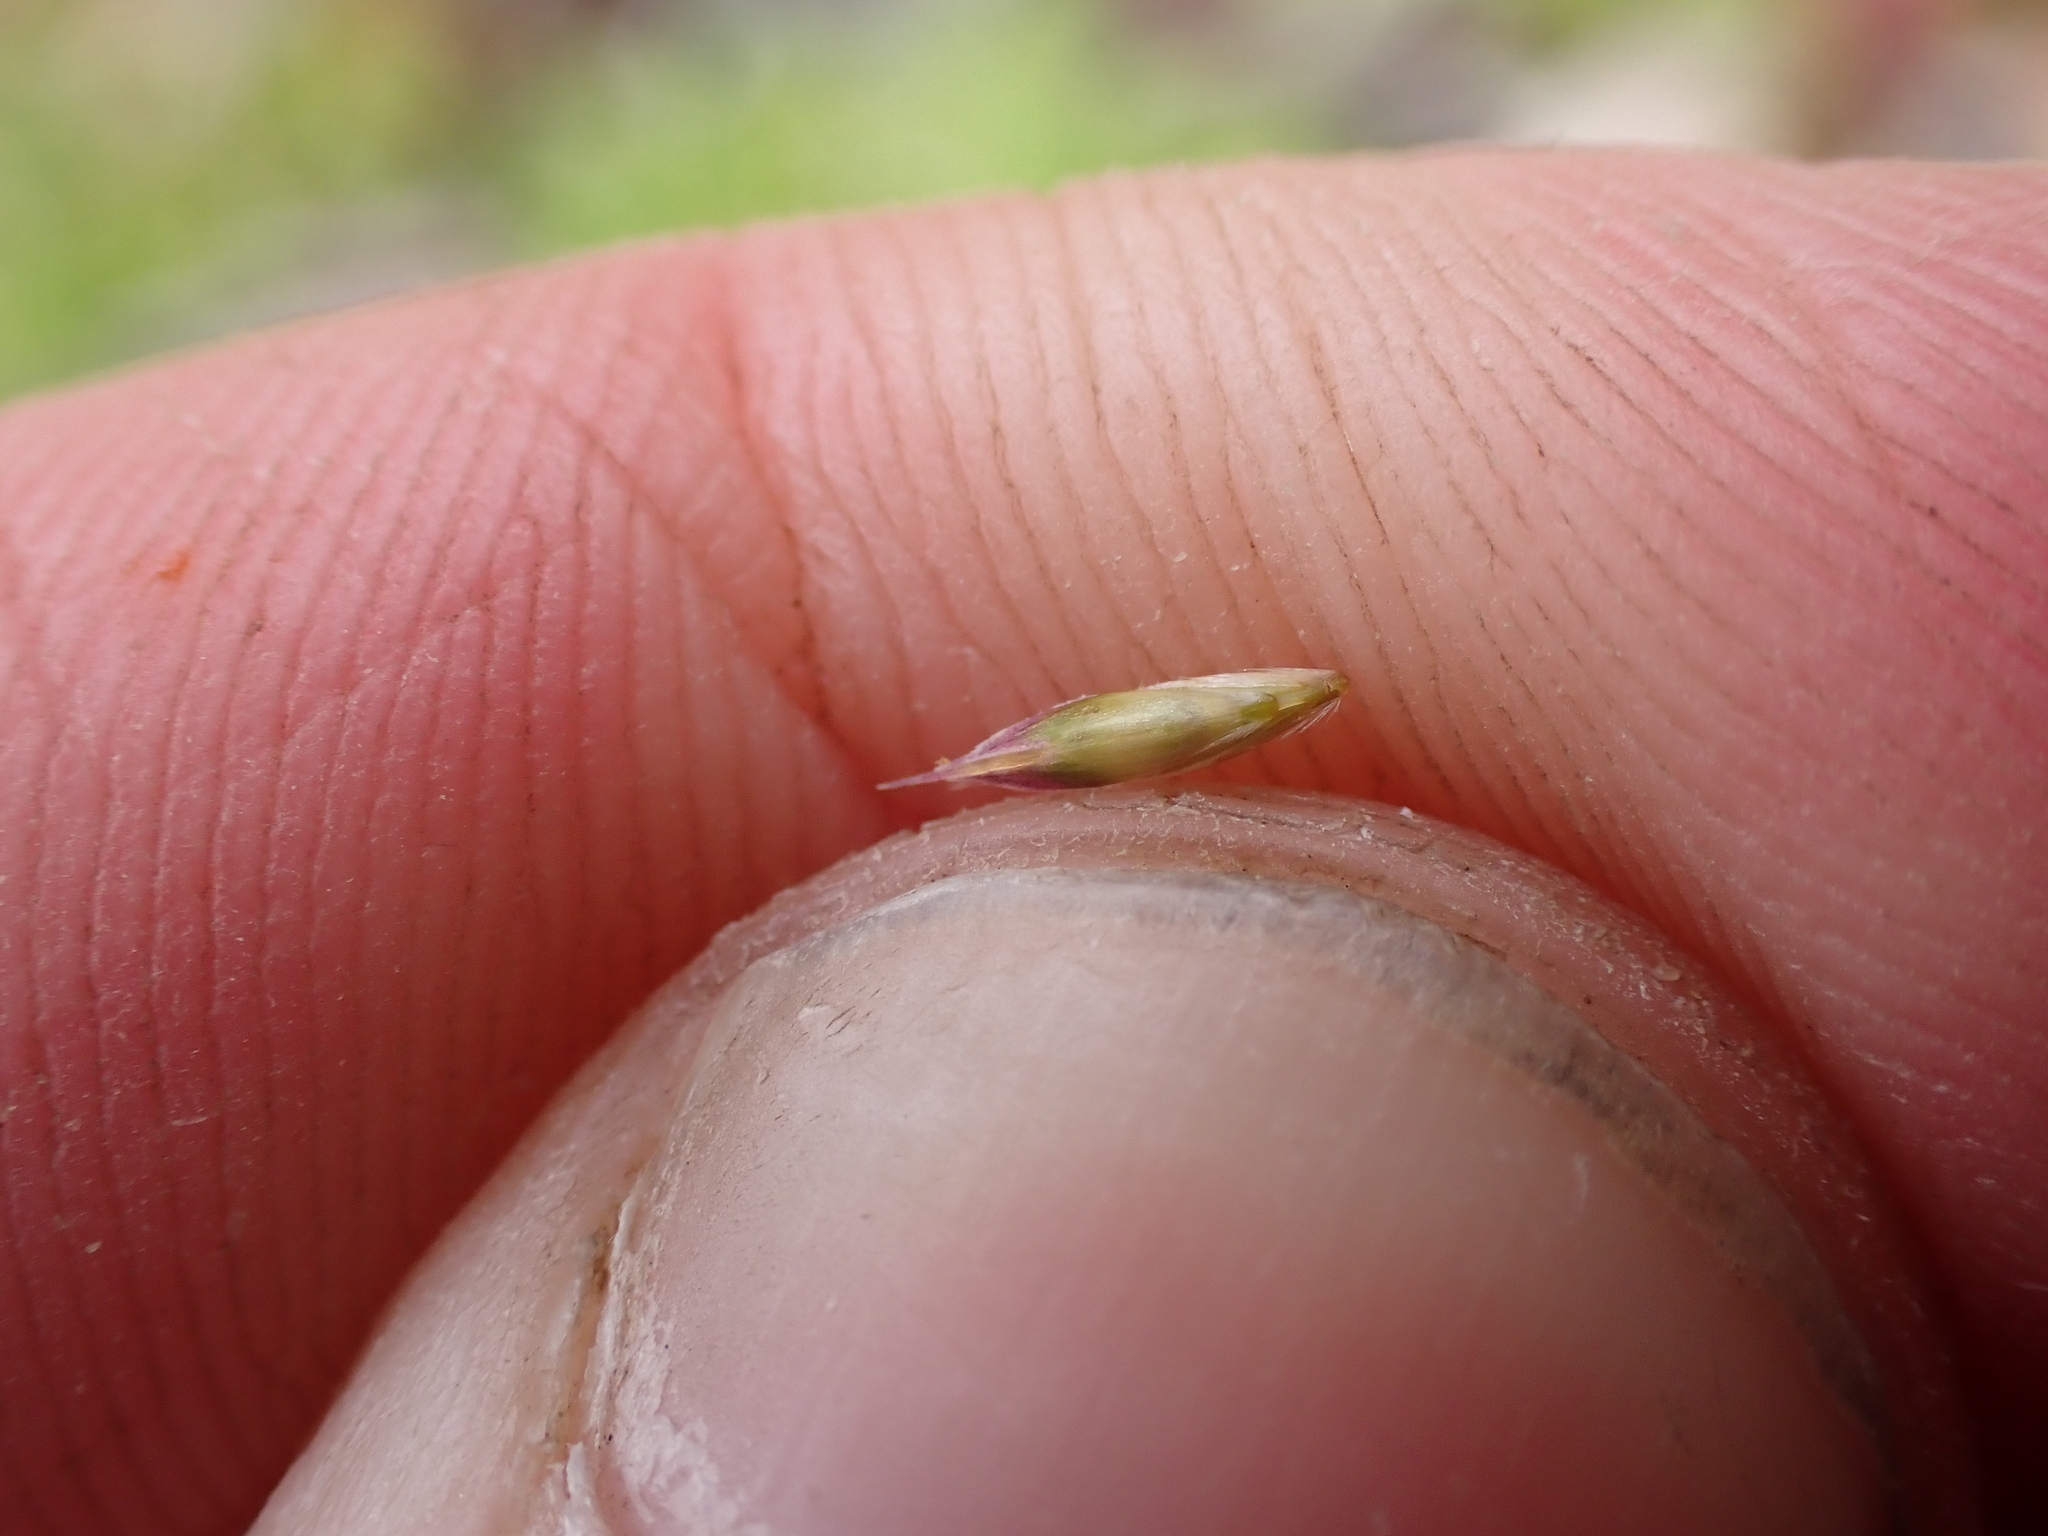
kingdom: Plantae
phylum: Tracheophyta
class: Liliopsida
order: Poales
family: Poaceae
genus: Rytidosperma
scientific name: Rytidosperma nivicola
